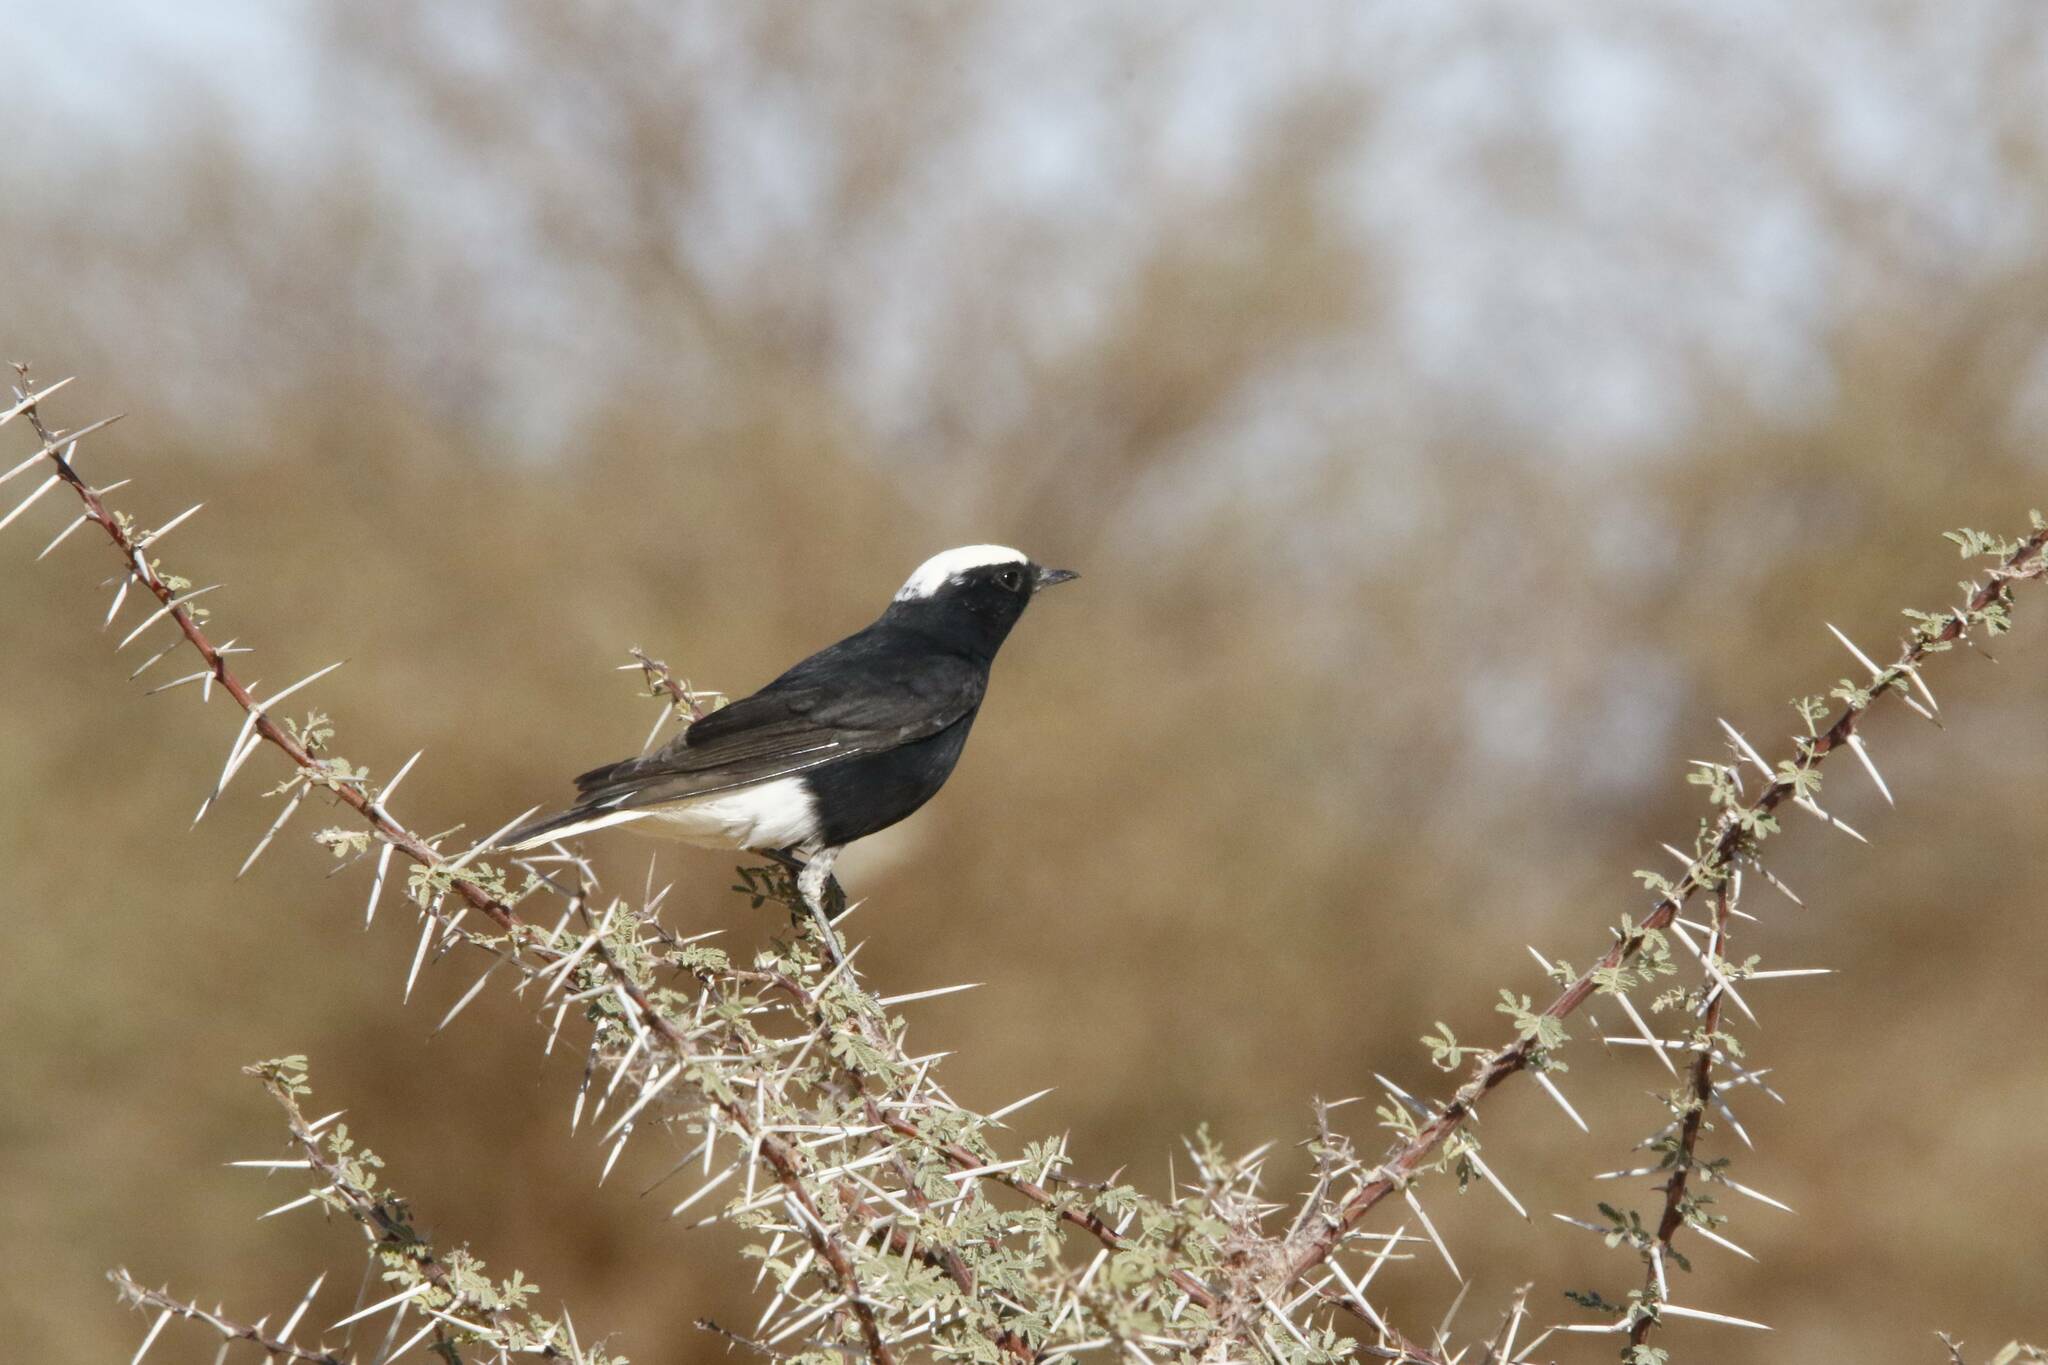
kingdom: Animalia
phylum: Chordata
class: Aves
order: Passeriformes
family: Muscicapidae
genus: Oenanthe
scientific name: Oenanthe leucopyga
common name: White-crowned wheatear
